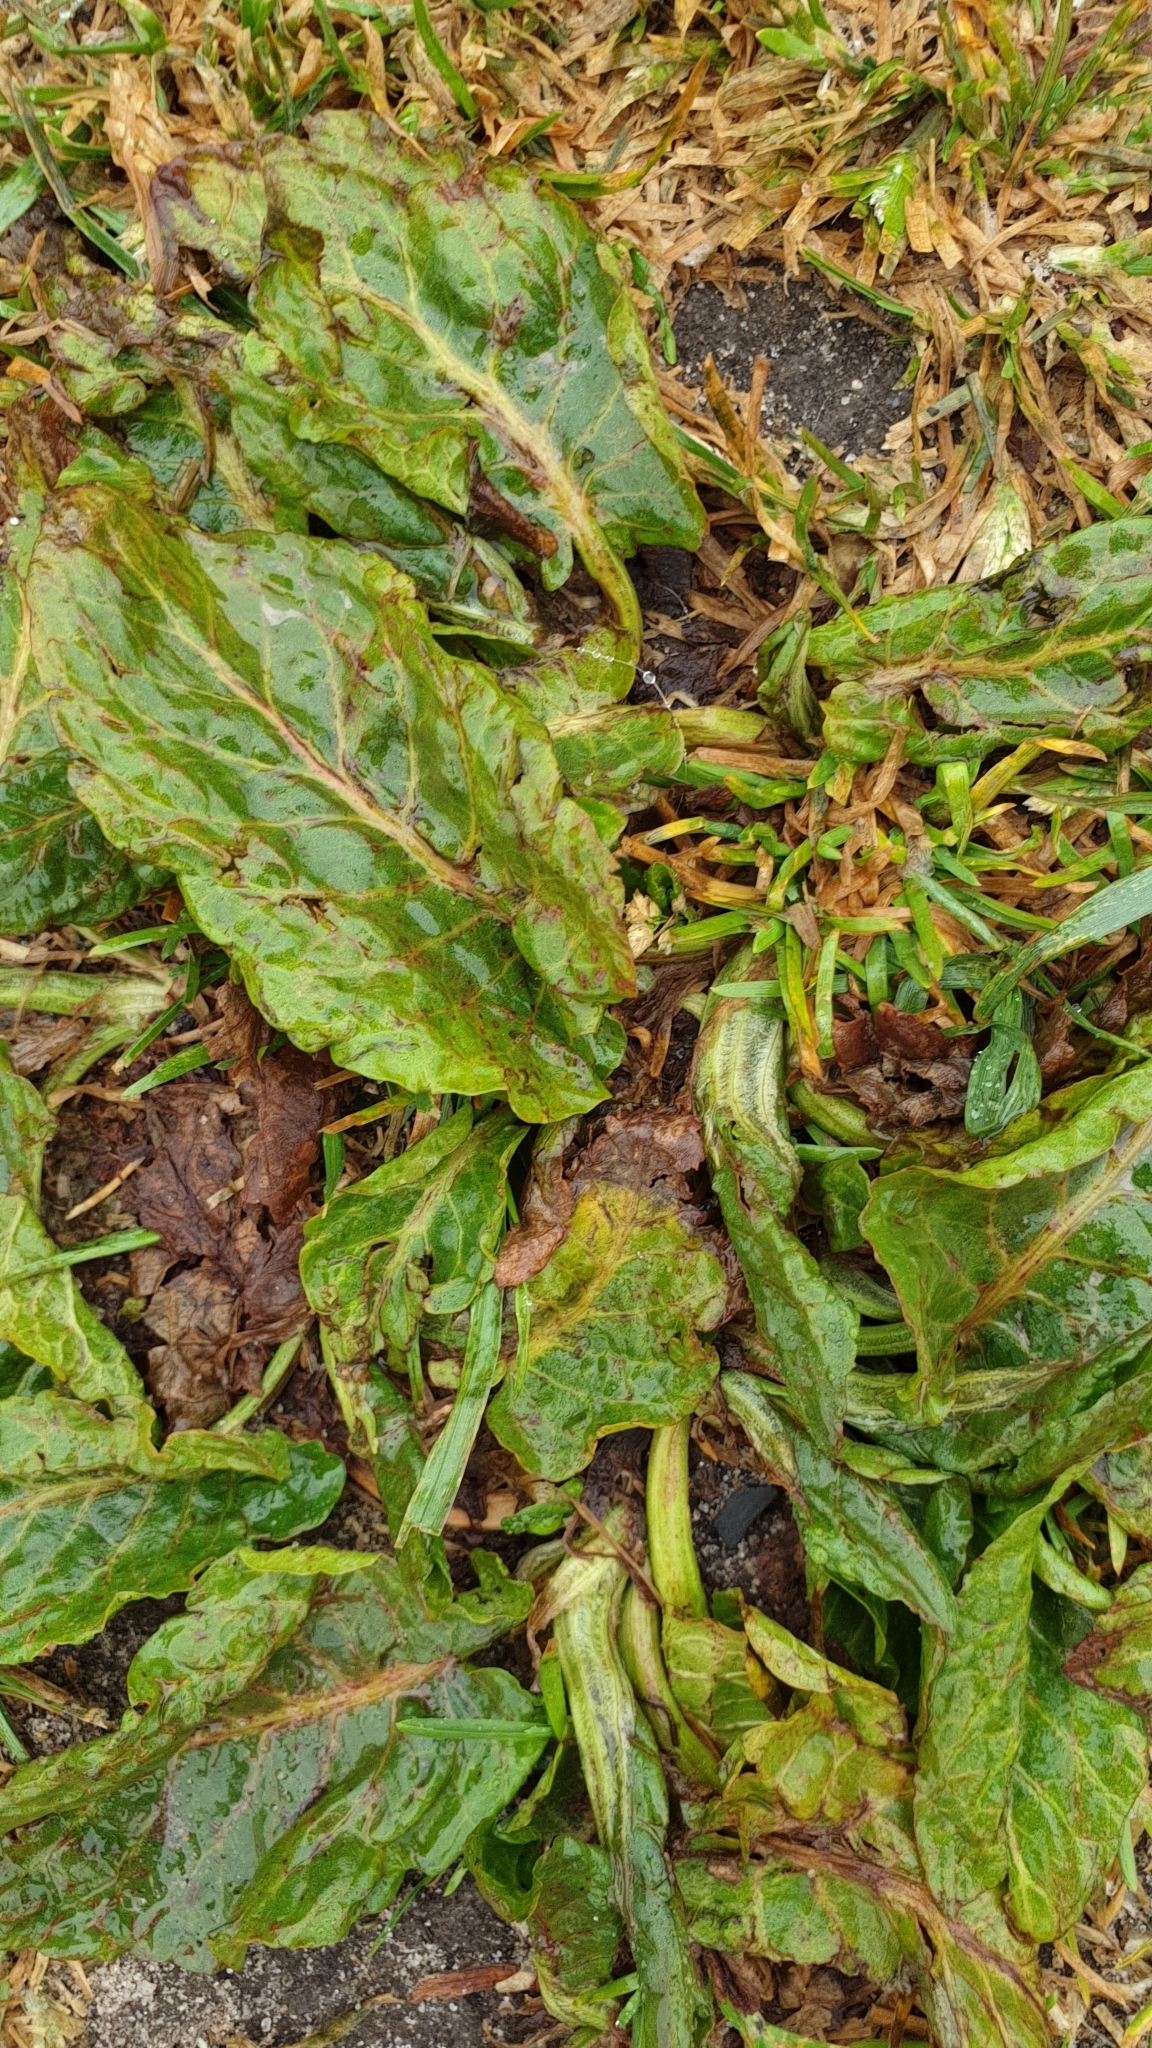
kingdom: Plantae
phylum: Tracheophyta
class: Magnoliopsida
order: Lamiales
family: Plantaginaceae
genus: Plantago
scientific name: Plantago major
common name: Common plantain
